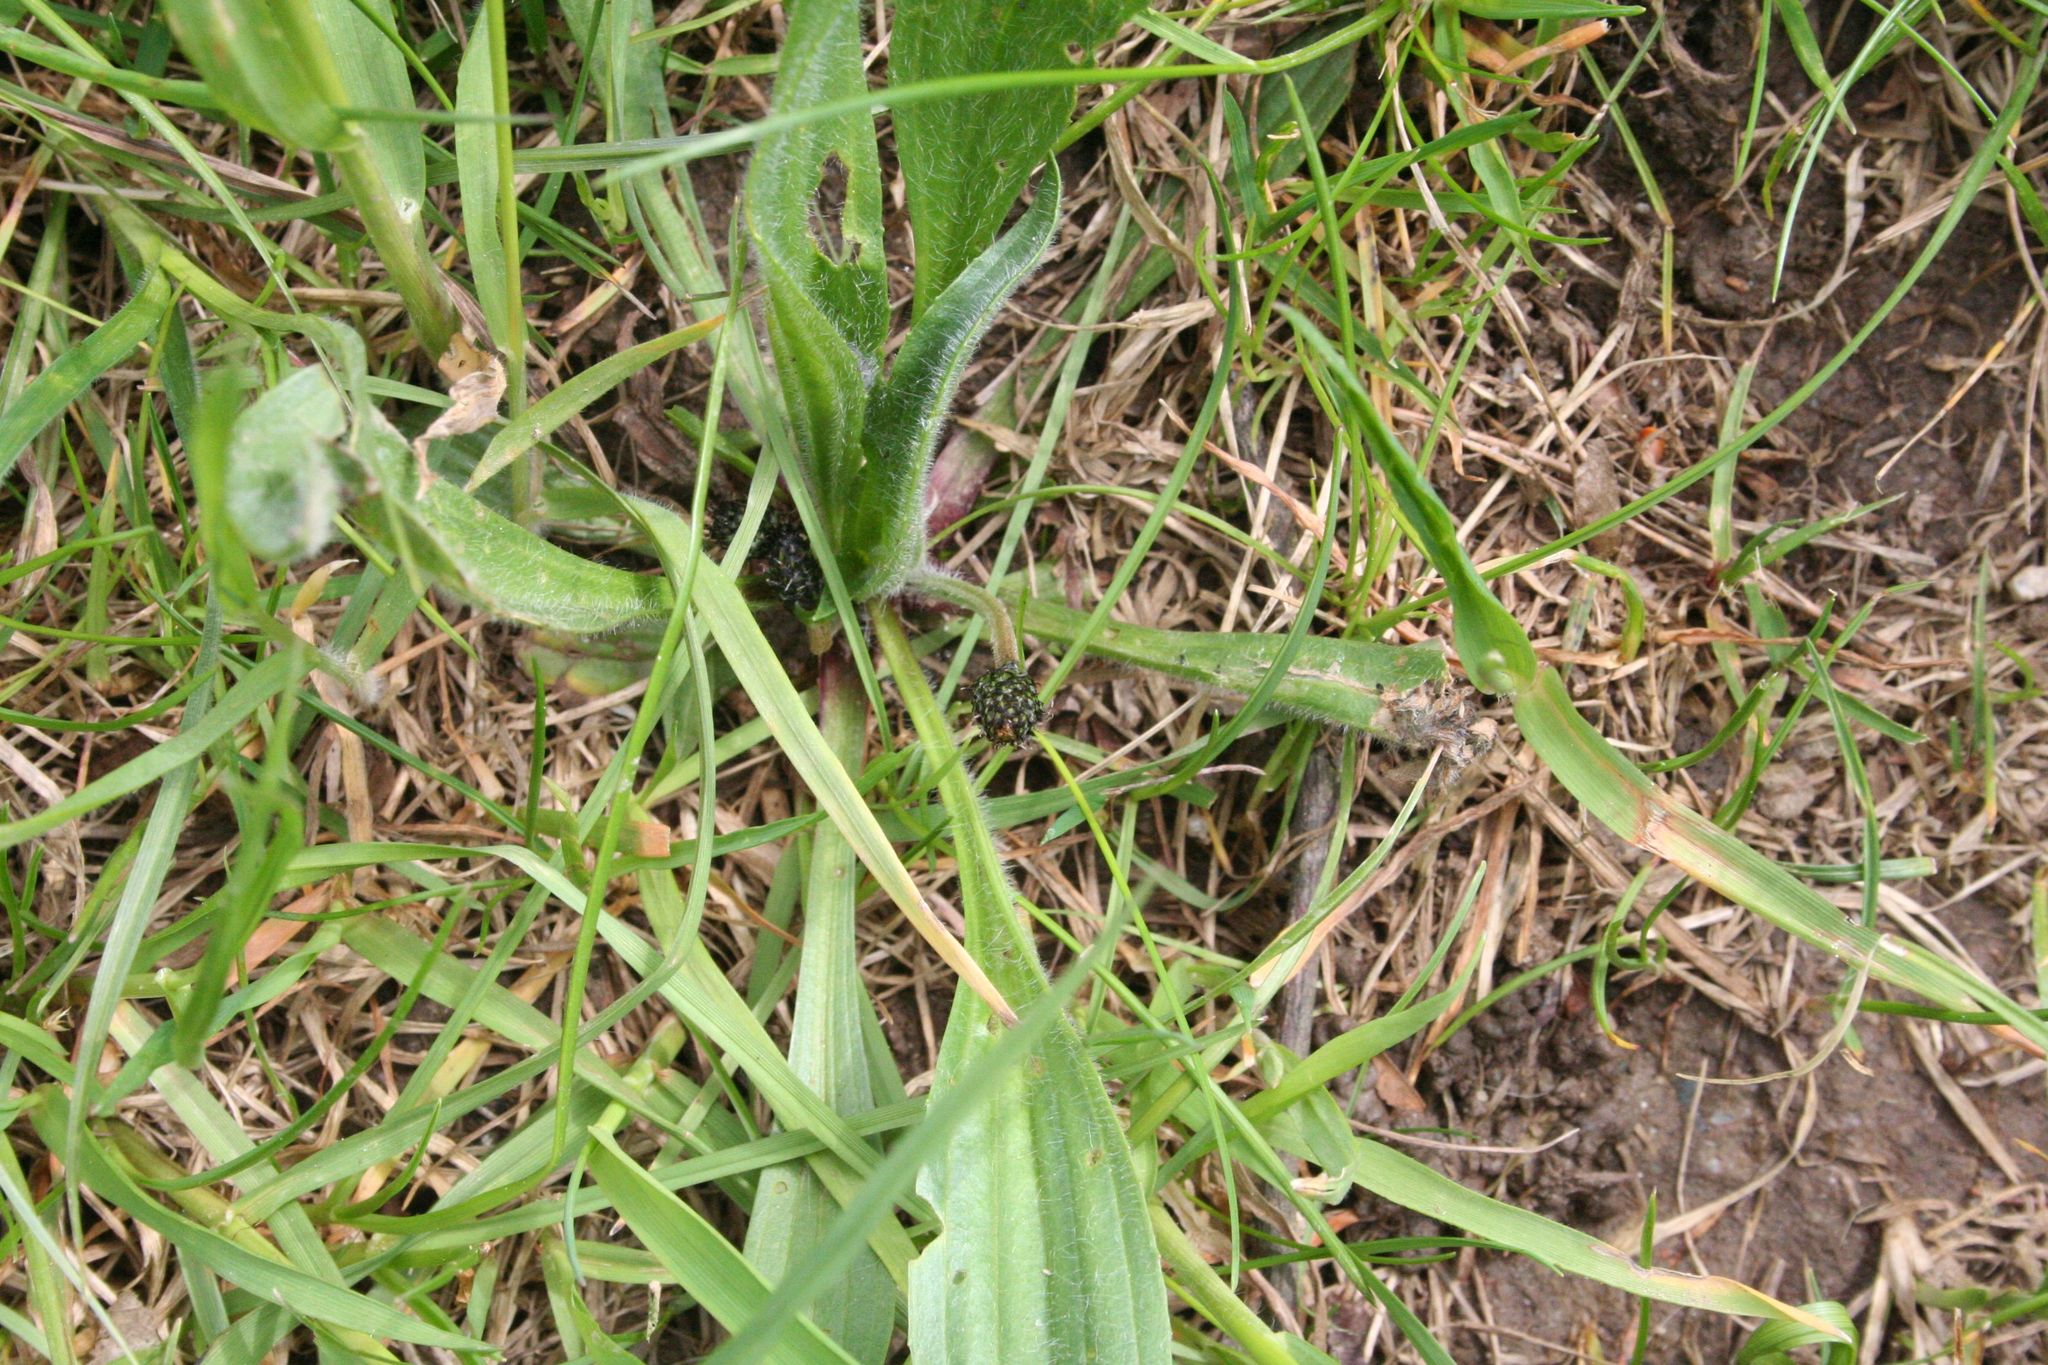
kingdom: Plantae
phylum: Tracheophyta
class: Magnoliopsida
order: Lamiales
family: Plantaginaceae
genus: Plantago
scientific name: Plantago lanceolata
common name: Ribwort plantain
